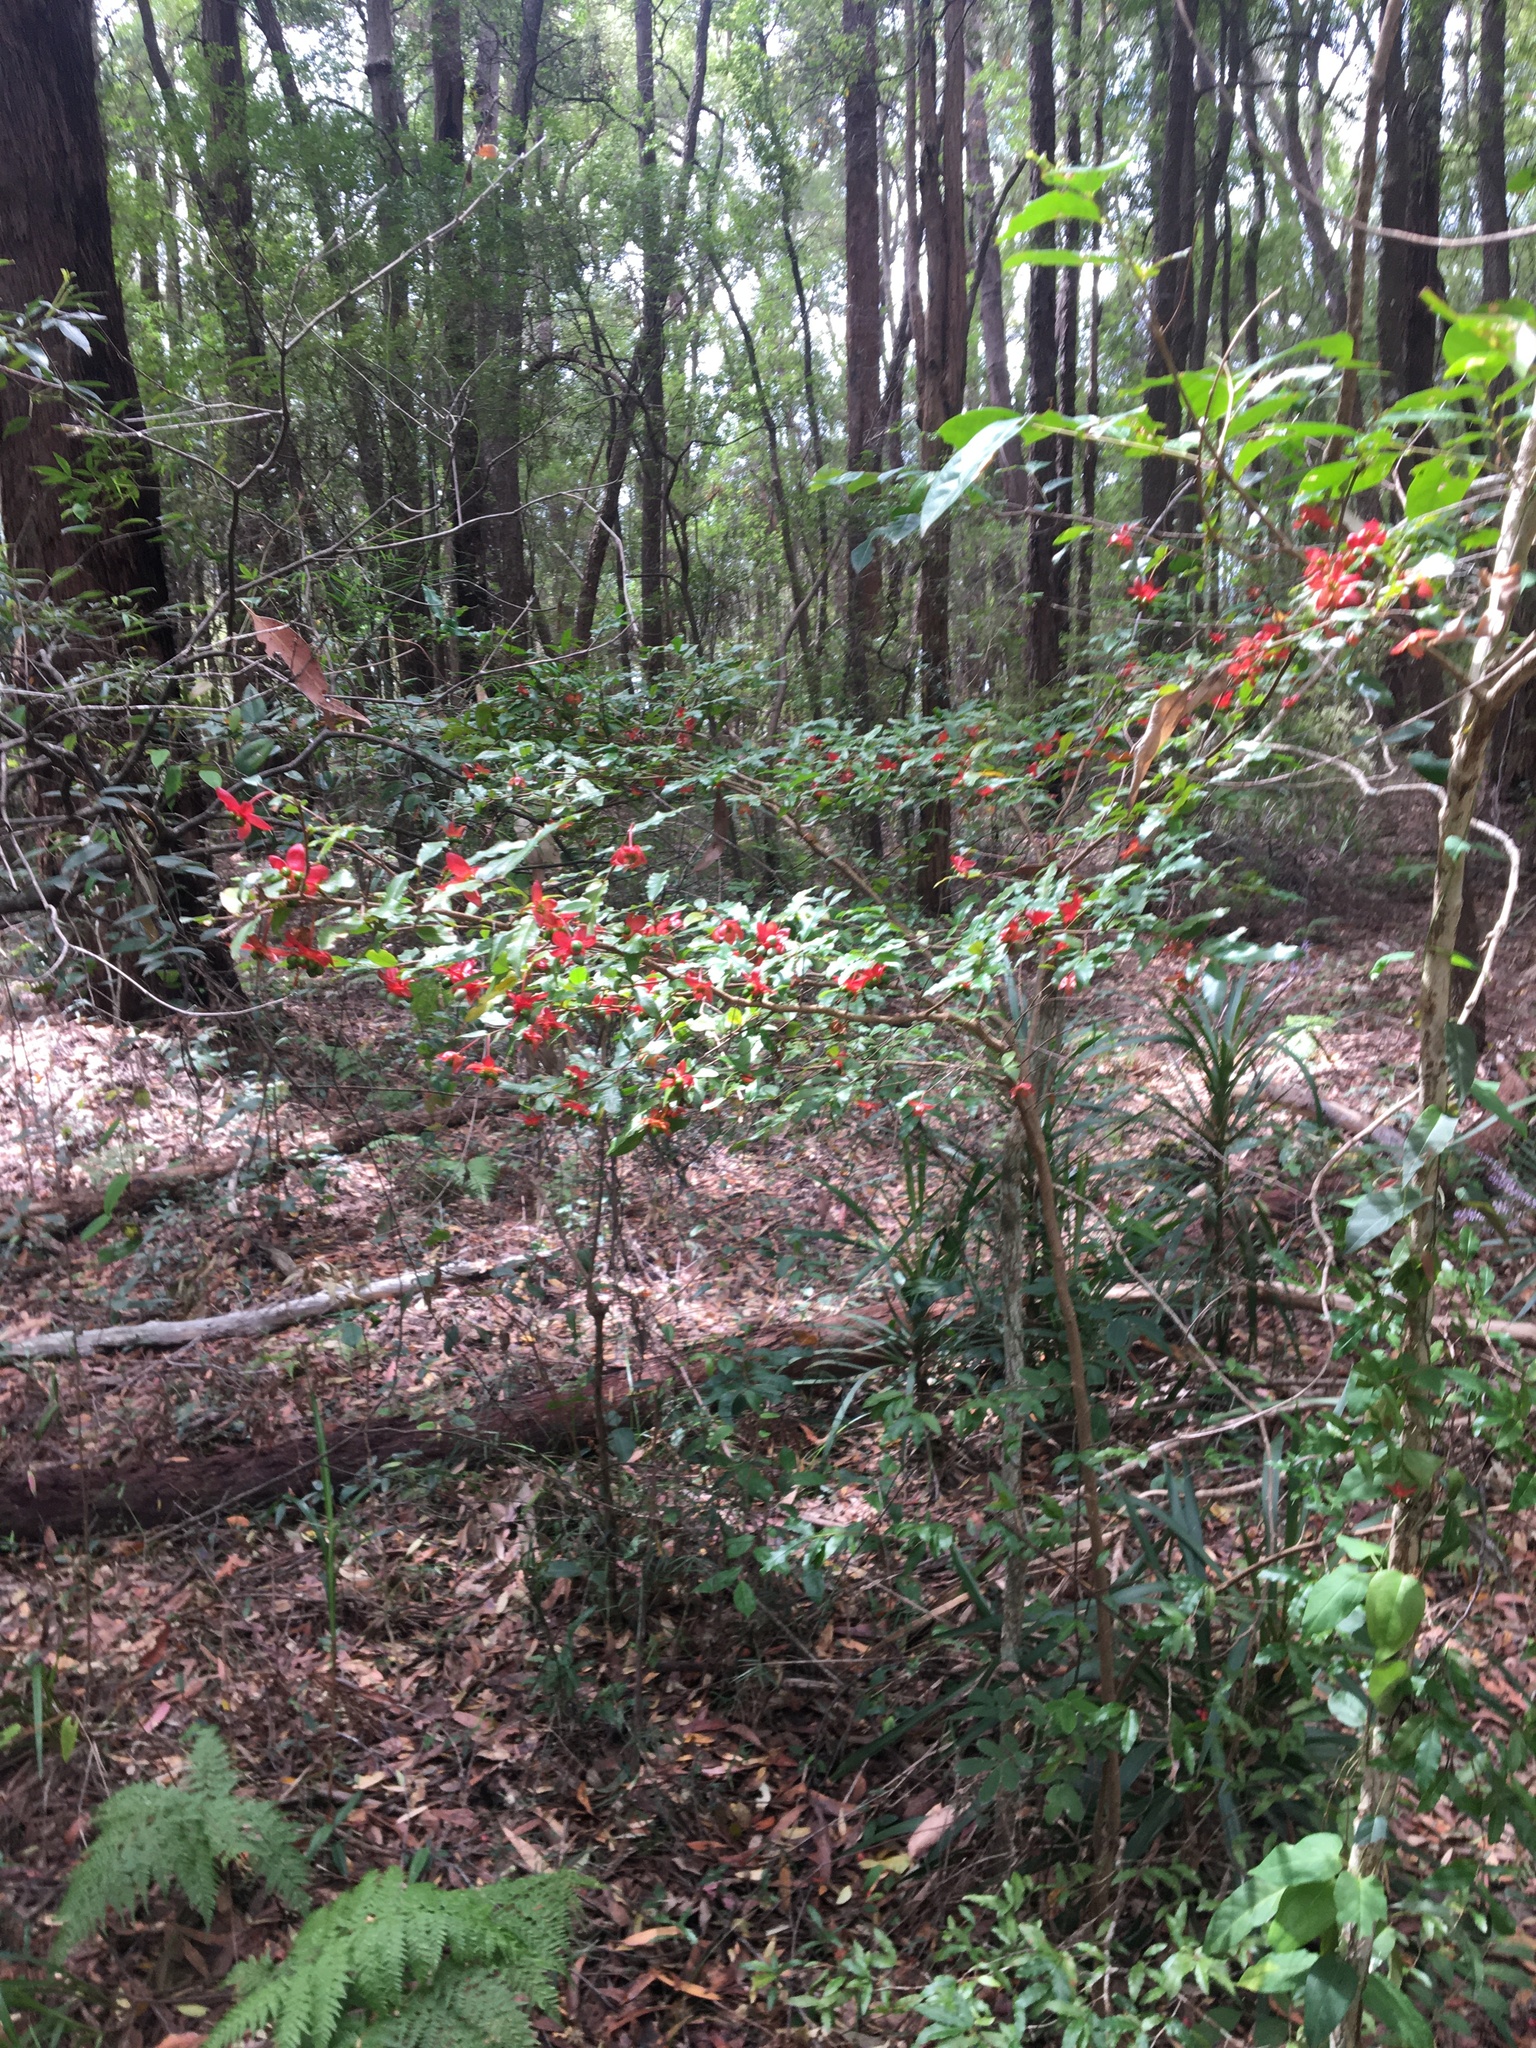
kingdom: Plantae
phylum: Tracheophyta
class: Magnoliopsida
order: Malpighiales
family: Ochnaceae
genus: Ochna
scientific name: Ochna serrulata
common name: Mickey mouse plant
